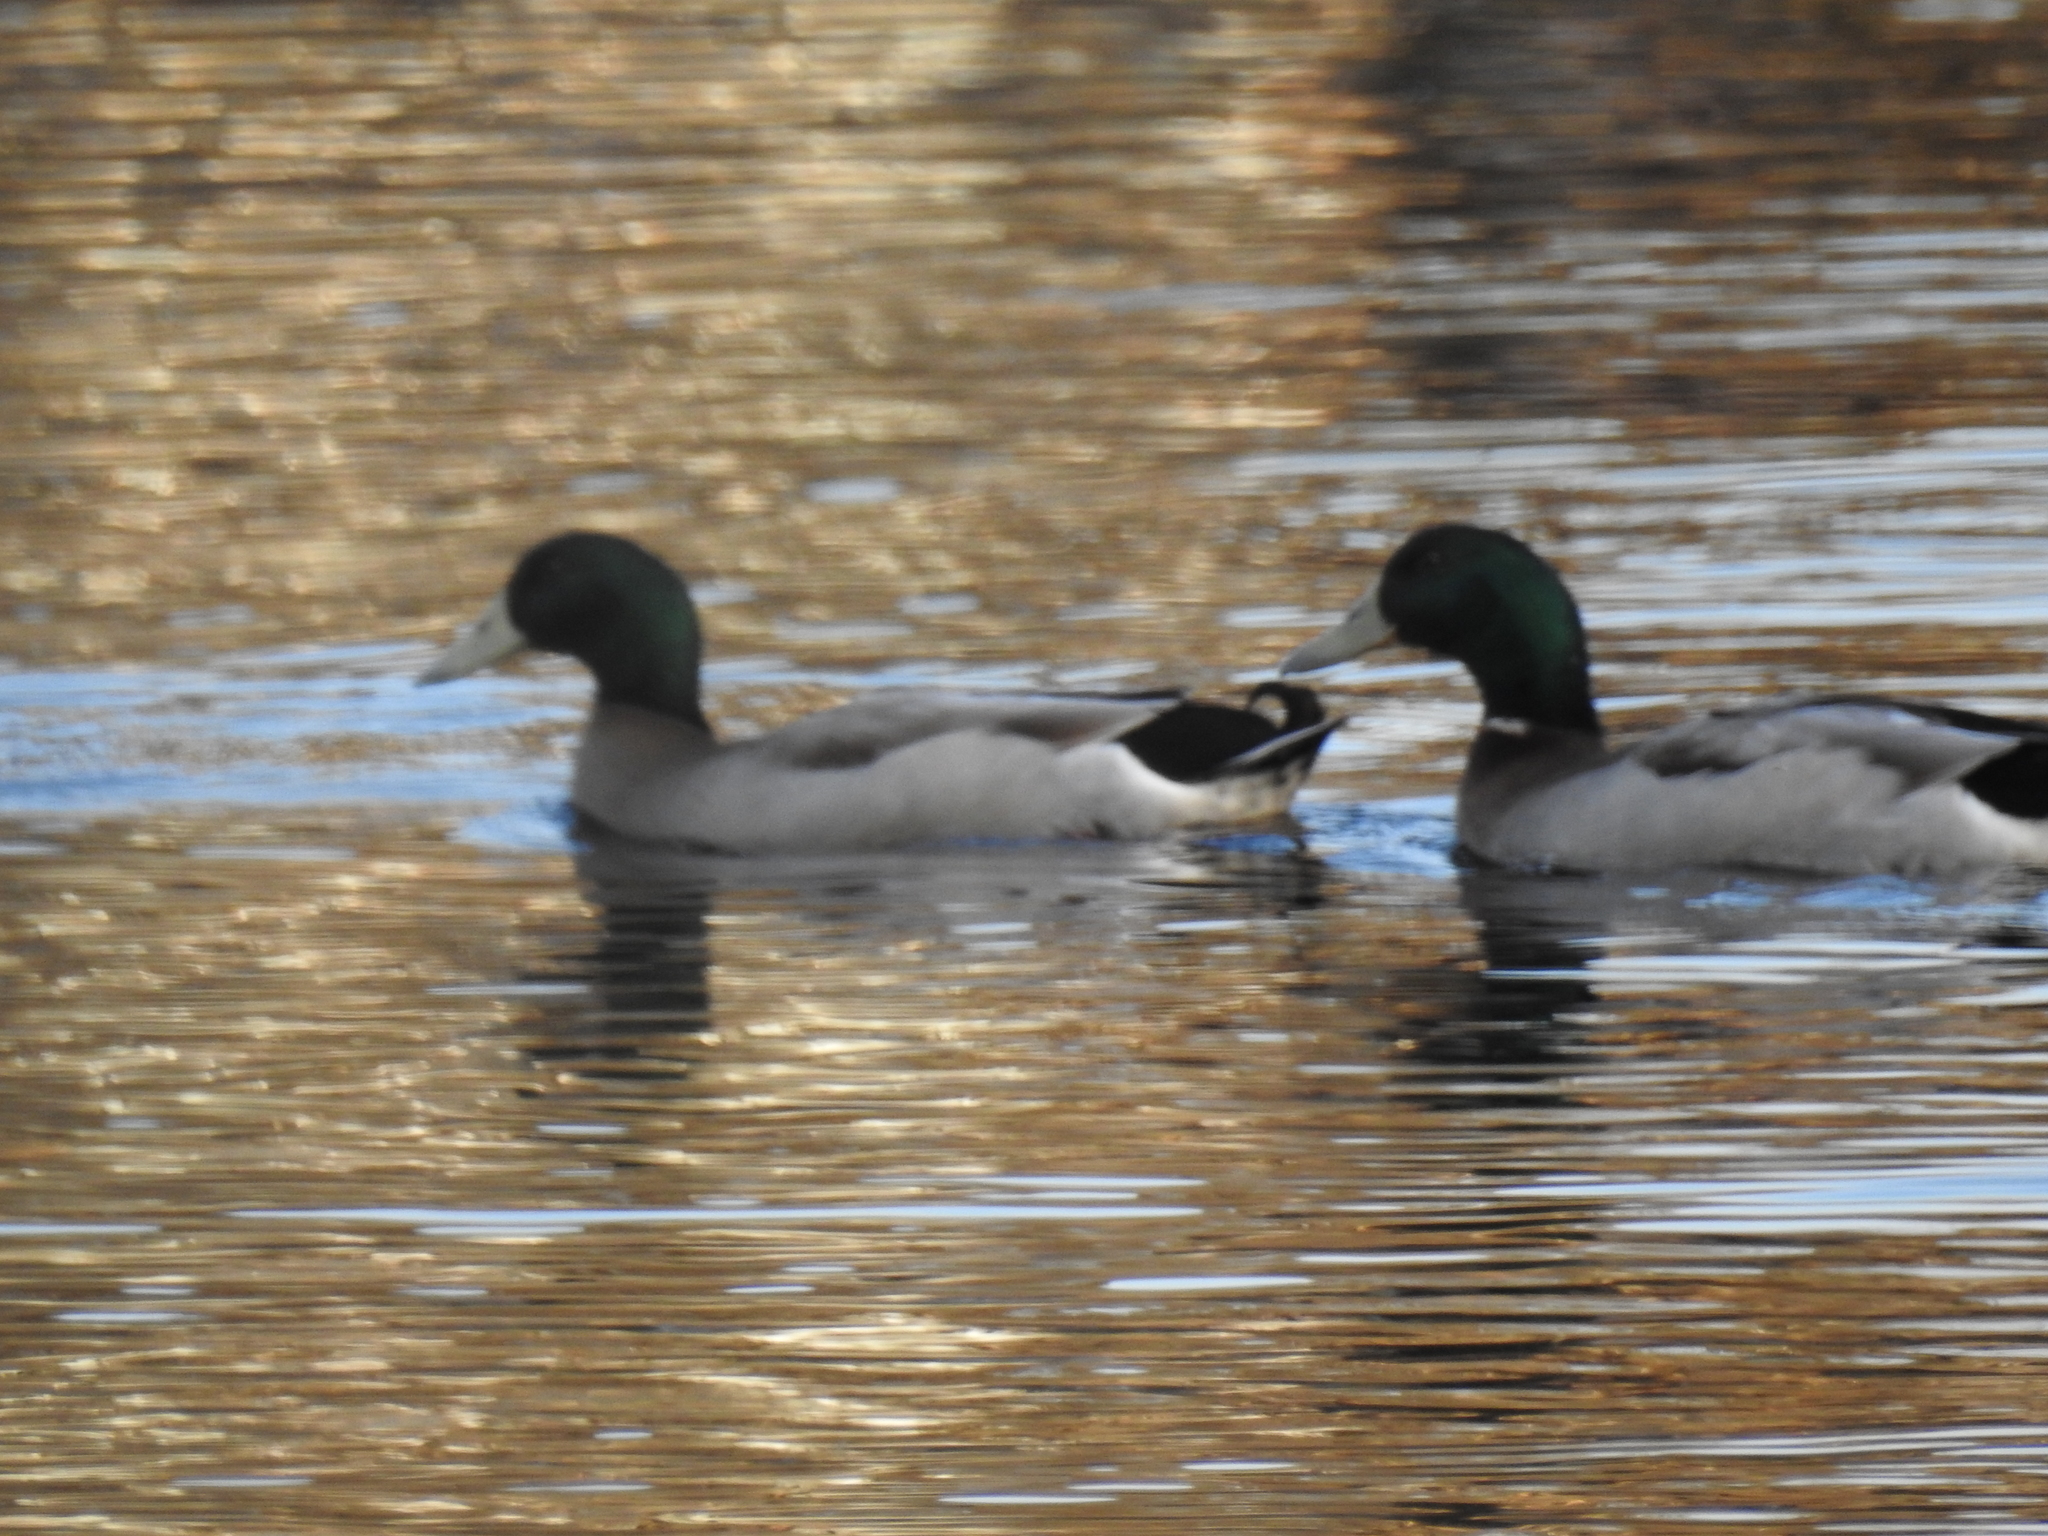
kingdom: Animalia
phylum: Chordata
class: Aves
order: Anseriformes
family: Anatidae
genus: Anas
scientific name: Anas platyrhynchos
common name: Mallard
